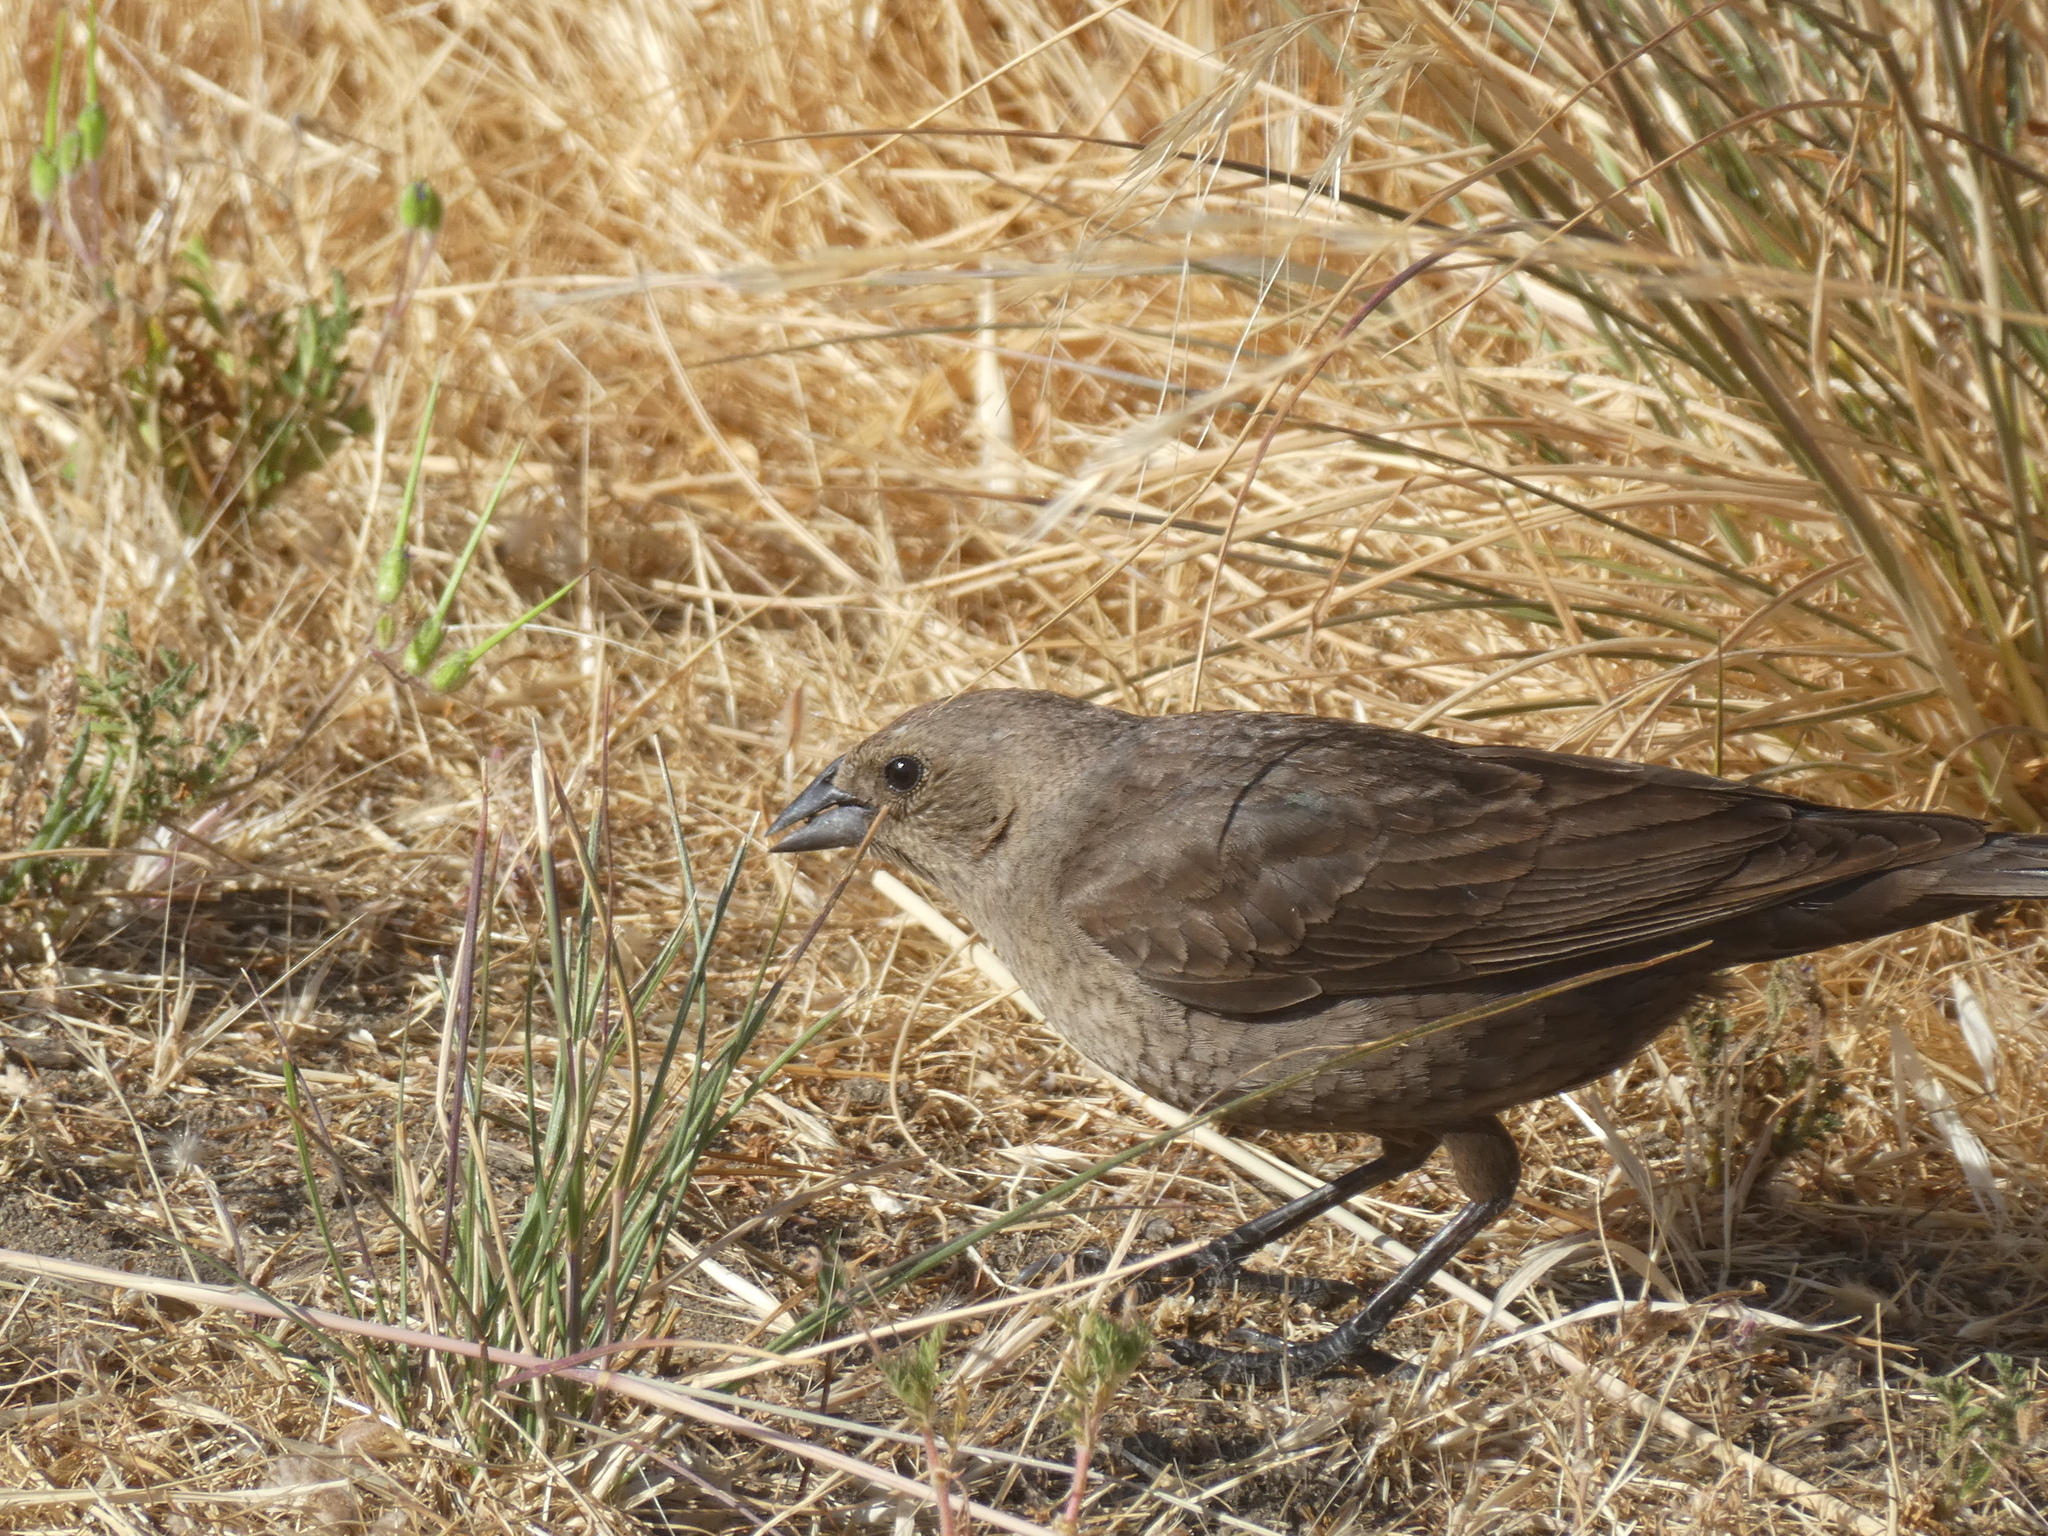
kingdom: Animalia
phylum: Chordata
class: Aves
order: Passeriformes
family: Icteridae
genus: Molothrus
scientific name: Molothrus ater
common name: Brown-headed cowbird
